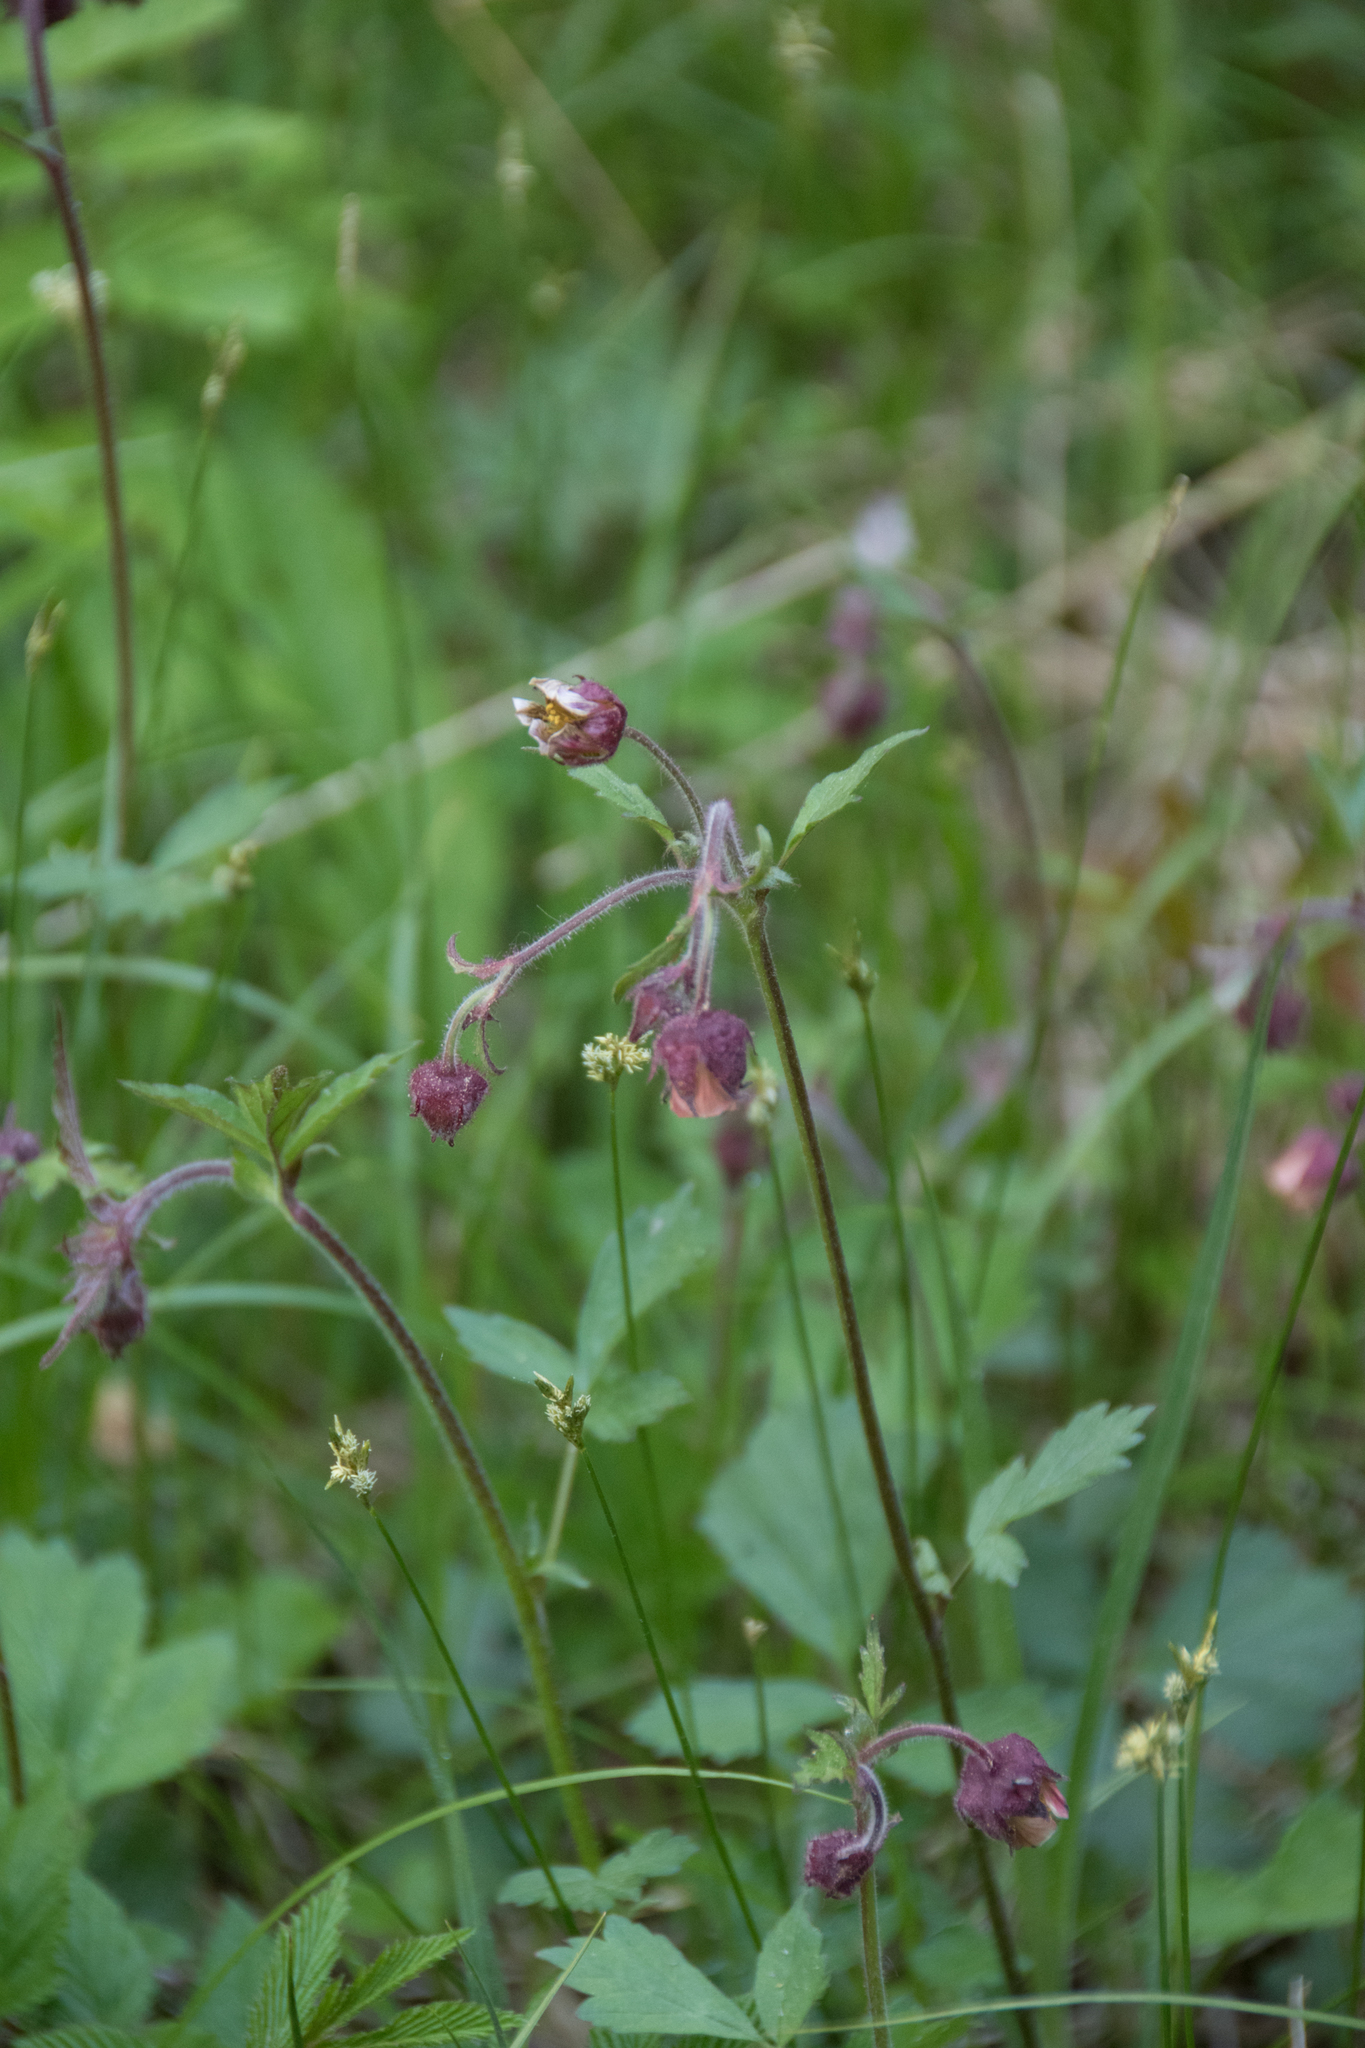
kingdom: Plantae
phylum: Tracheophyta
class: Magnoliopsida
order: Rosales
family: Rosaceae
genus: Geum
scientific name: Geum rivale
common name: Water avens
